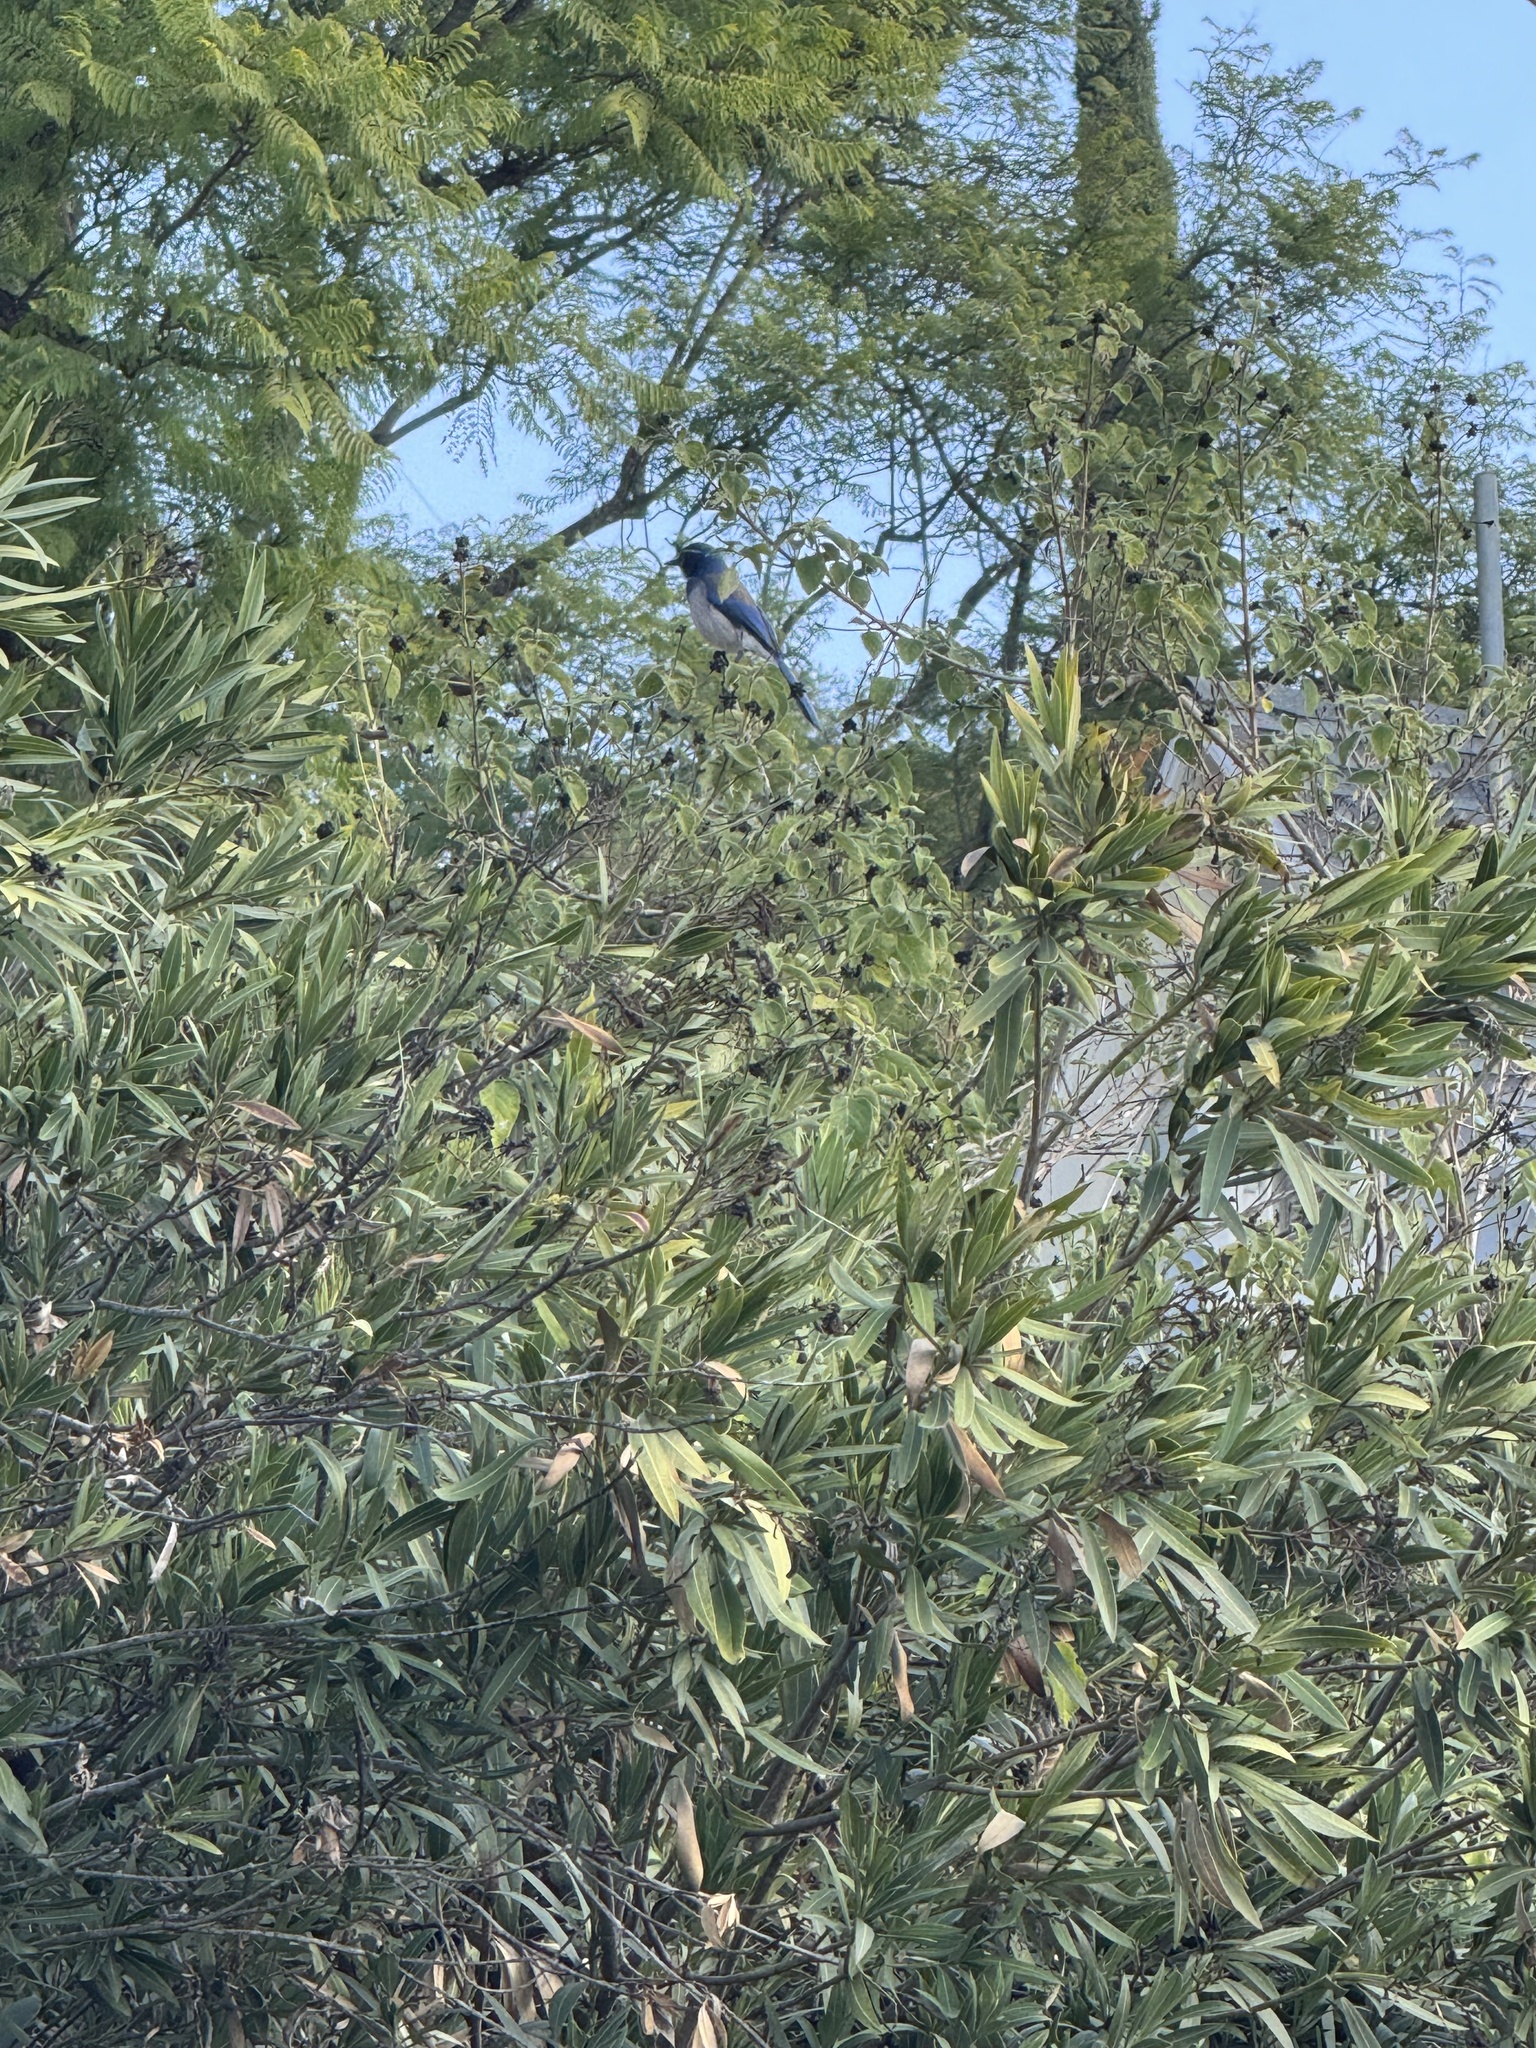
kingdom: Animalia
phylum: Chordata
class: Aves
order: Passeriformes
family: Corvidae
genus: Aphelocoma
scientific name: Aphelocoma californica
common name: California scrub-jay
